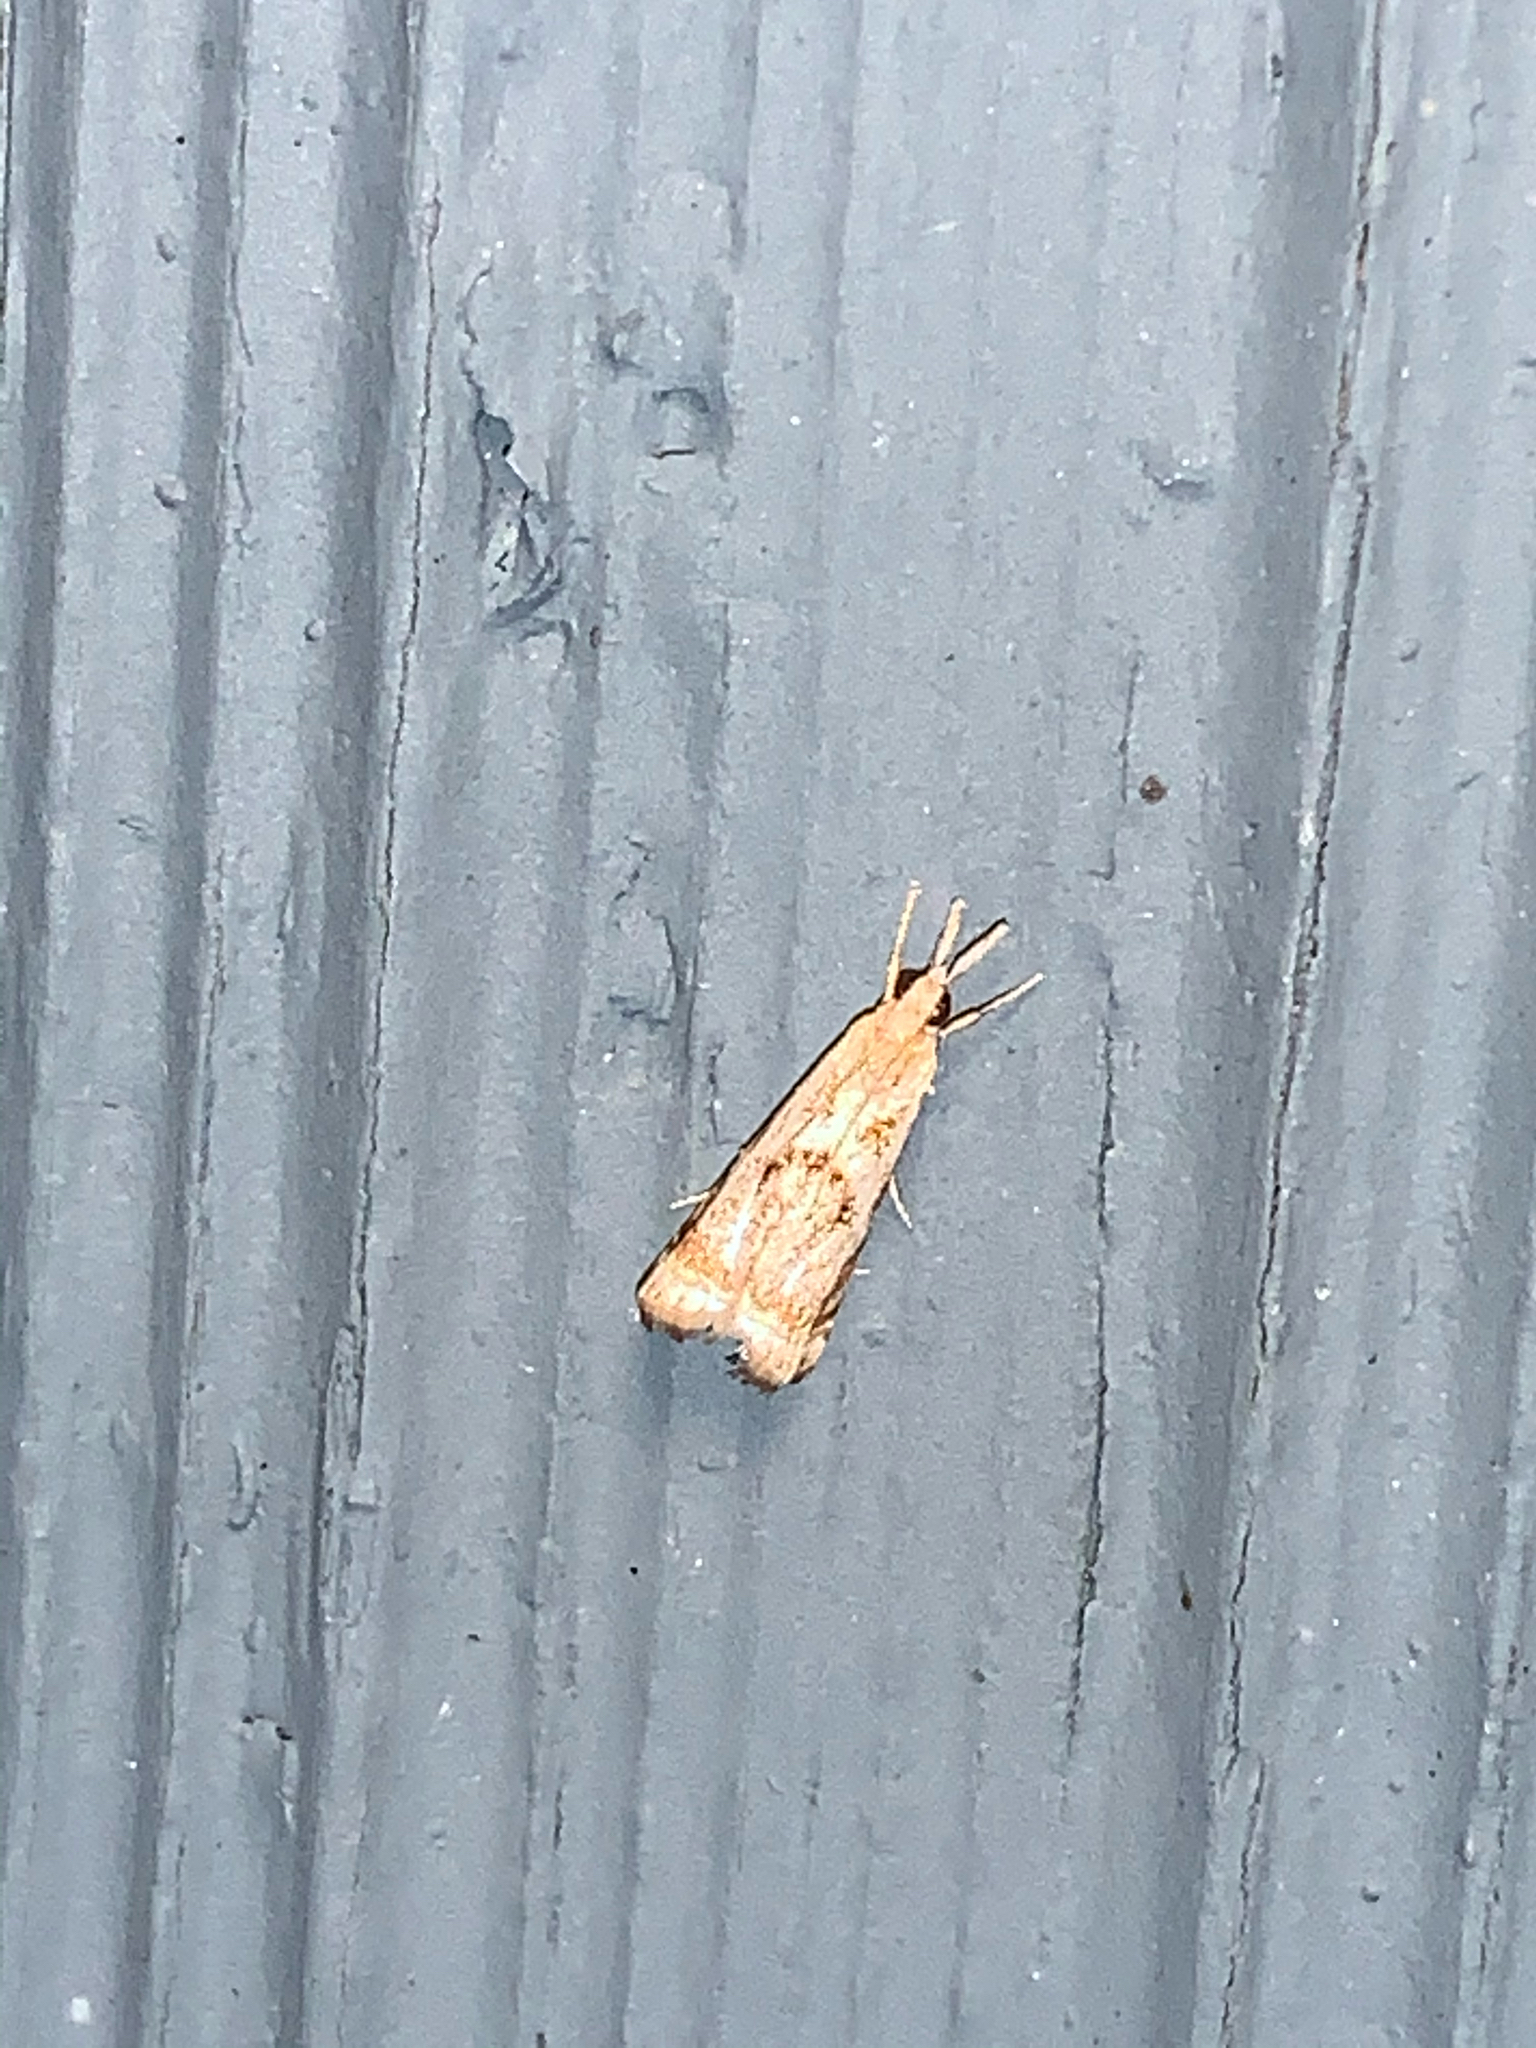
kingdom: Animalia
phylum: Arthropoda
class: Insecta
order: Lepidoptera
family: Crambidae
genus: Microcrambus
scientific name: Microcrambus elegans
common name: Elegant grass-veneer
